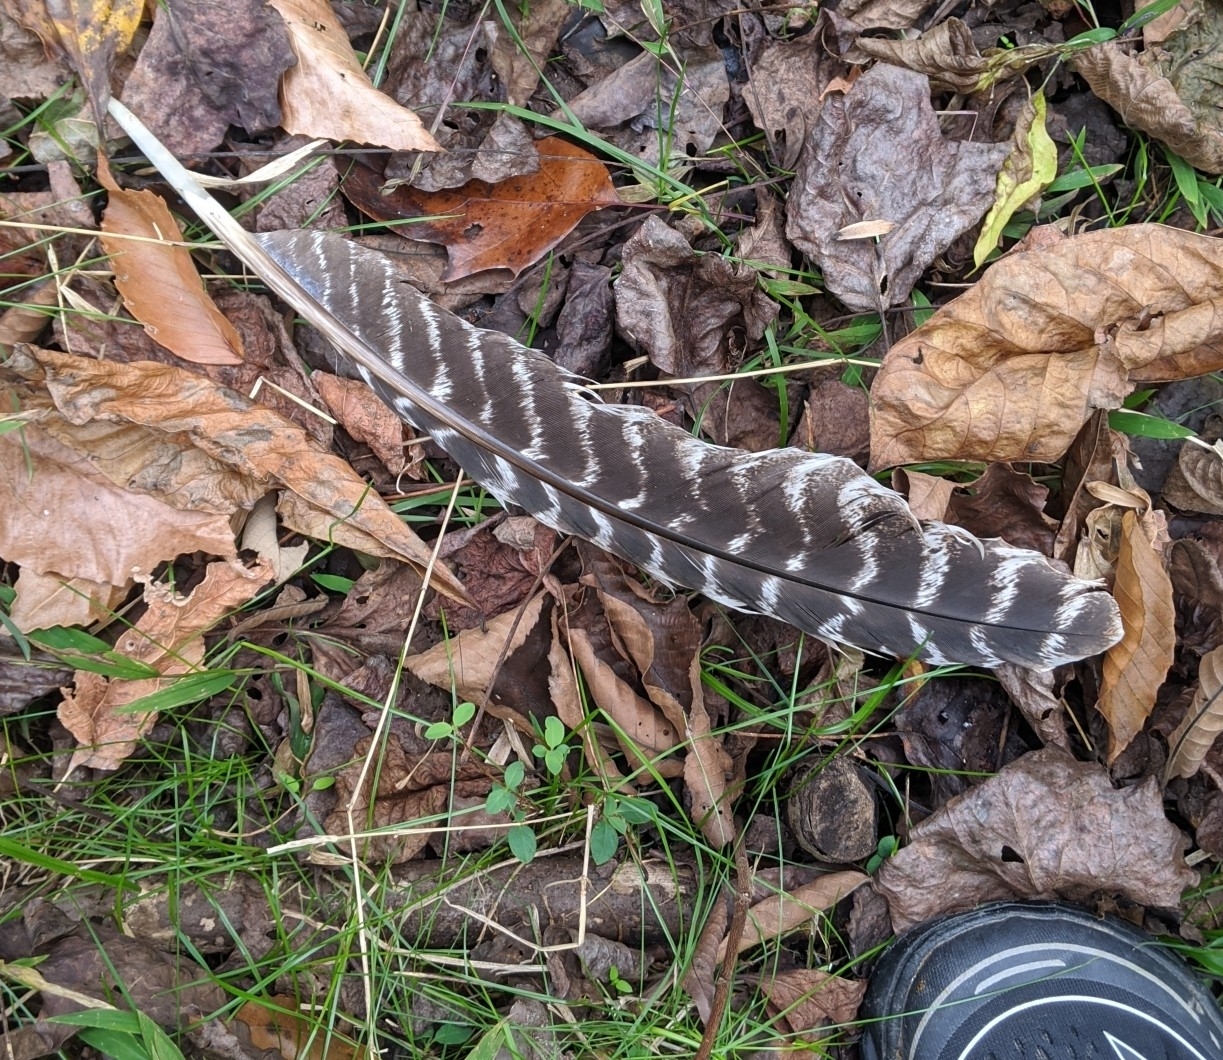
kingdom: Animalia
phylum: Chordata
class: Aves
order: Galliformes
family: Phasianidae
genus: Meleagris
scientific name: Meleagris gallopavo
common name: Wild turkey
